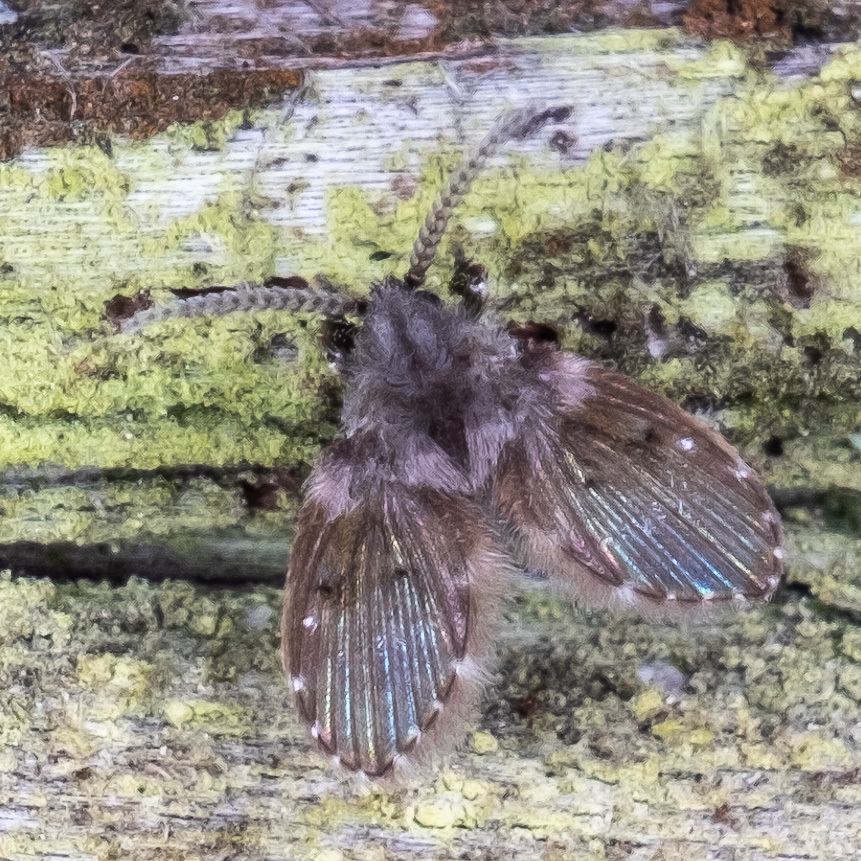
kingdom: Animalia
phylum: Arthropoda
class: Insecta
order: Diptera
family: Psychodidae
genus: Clogmia
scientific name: Clogmia albipunctatus
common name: White-spotted moth fly
